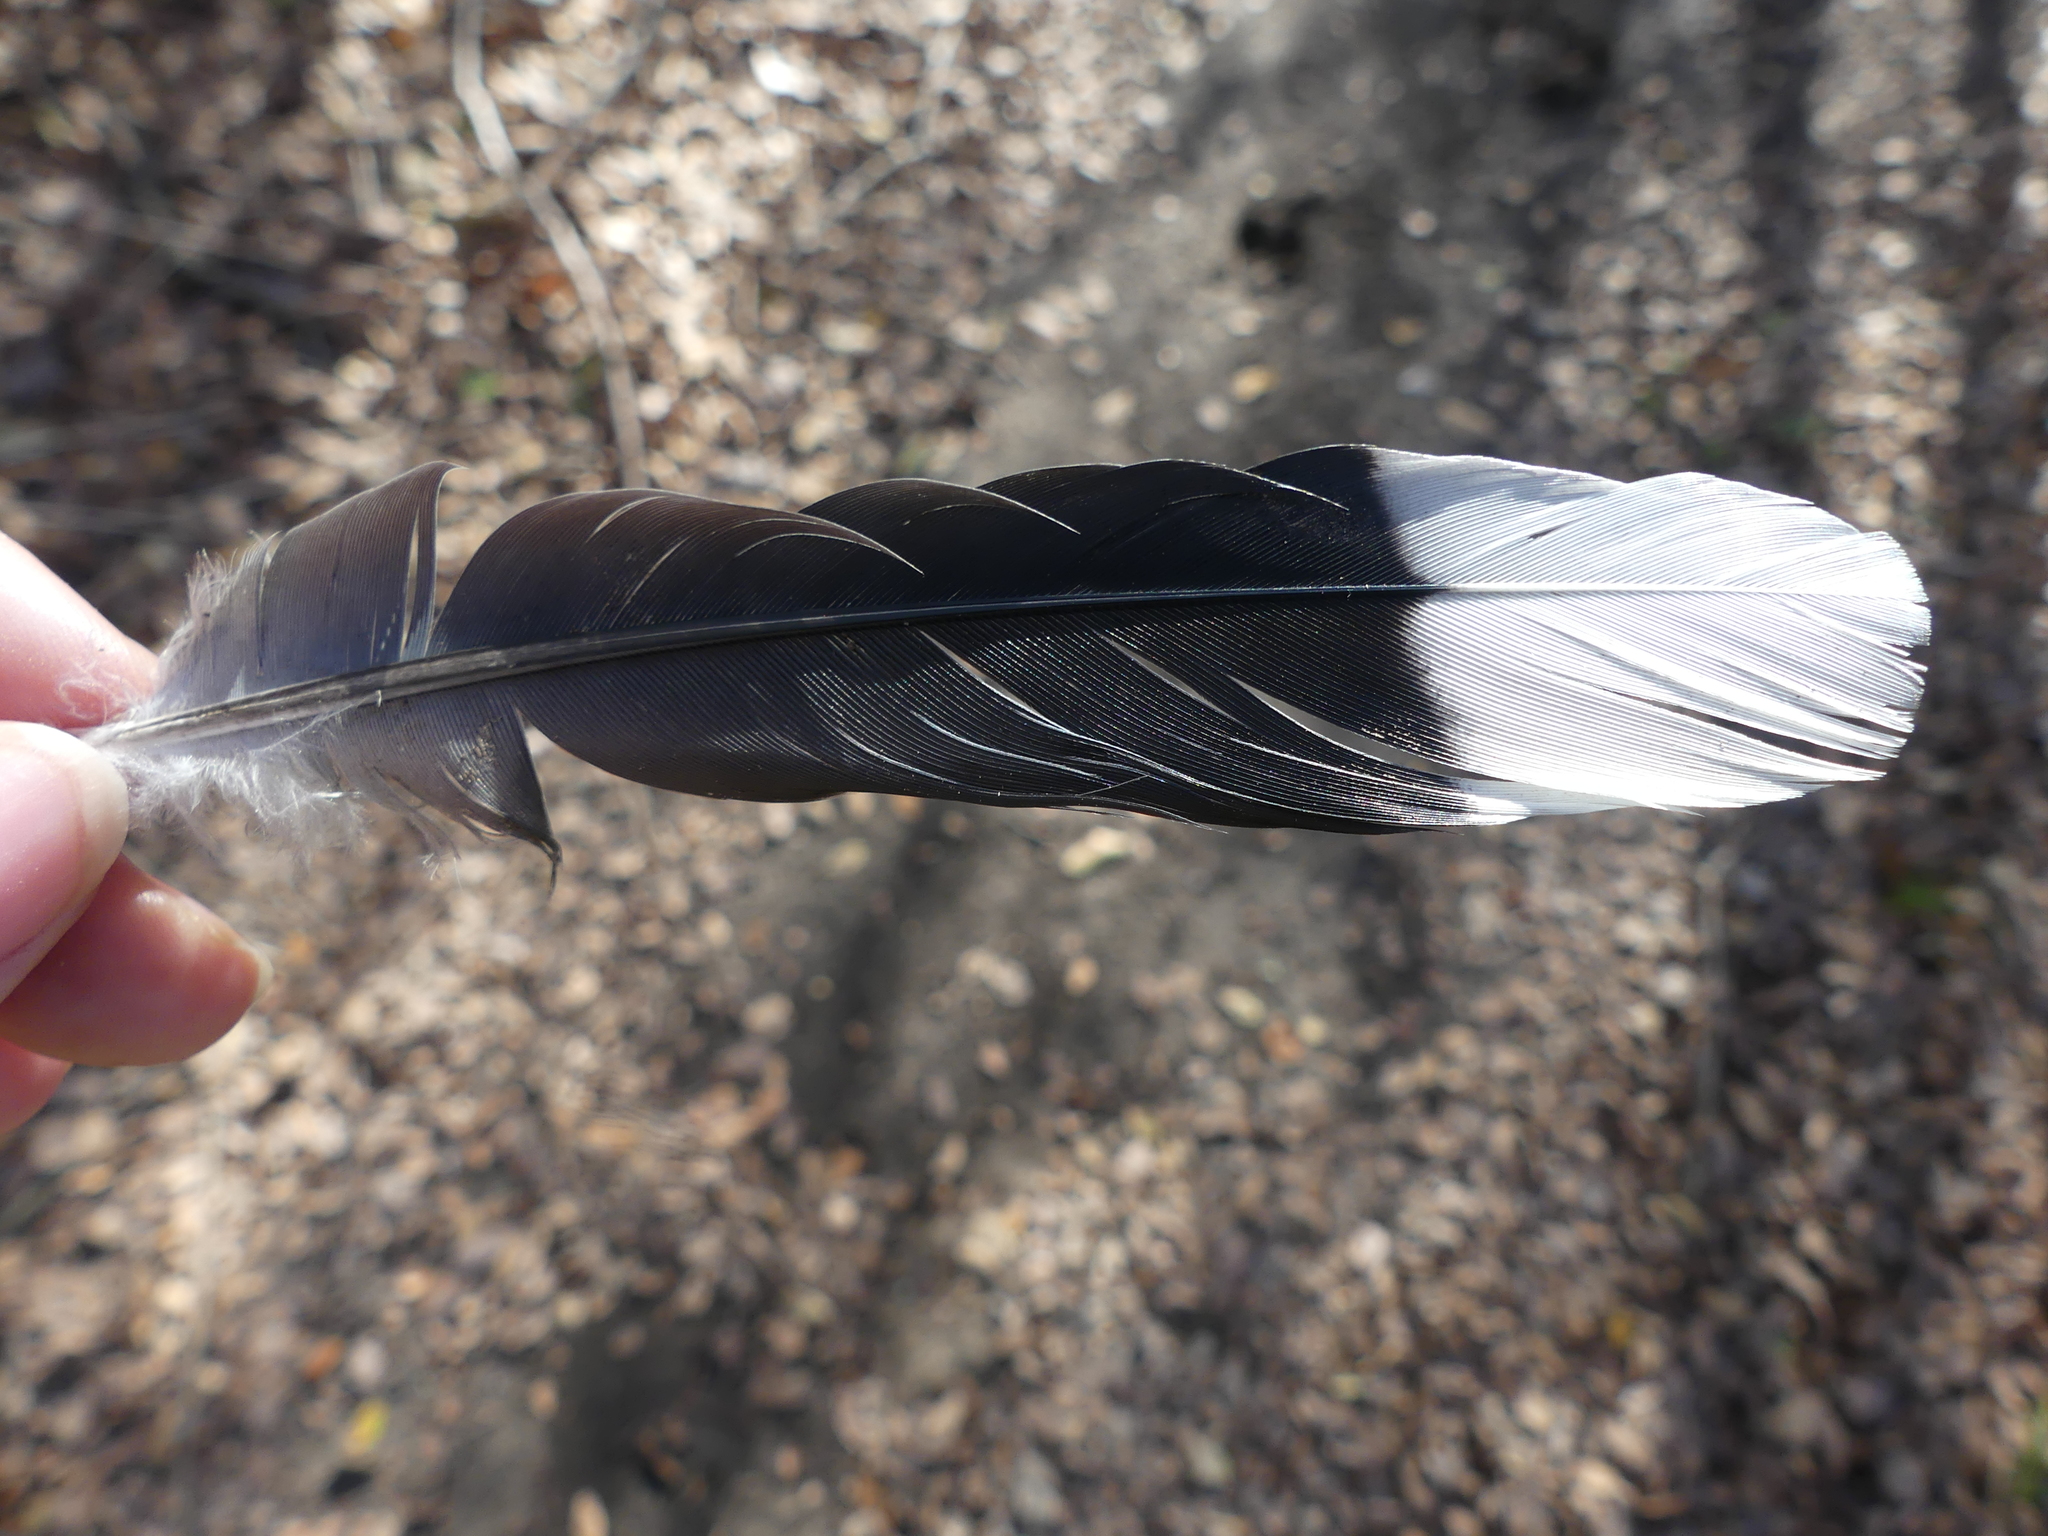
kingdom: Animalia
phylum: Chordata
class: Aves
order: Columbiformes
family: Columbidae
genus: Zenaida
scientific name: Zenaida macroura
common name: Mourning dove
